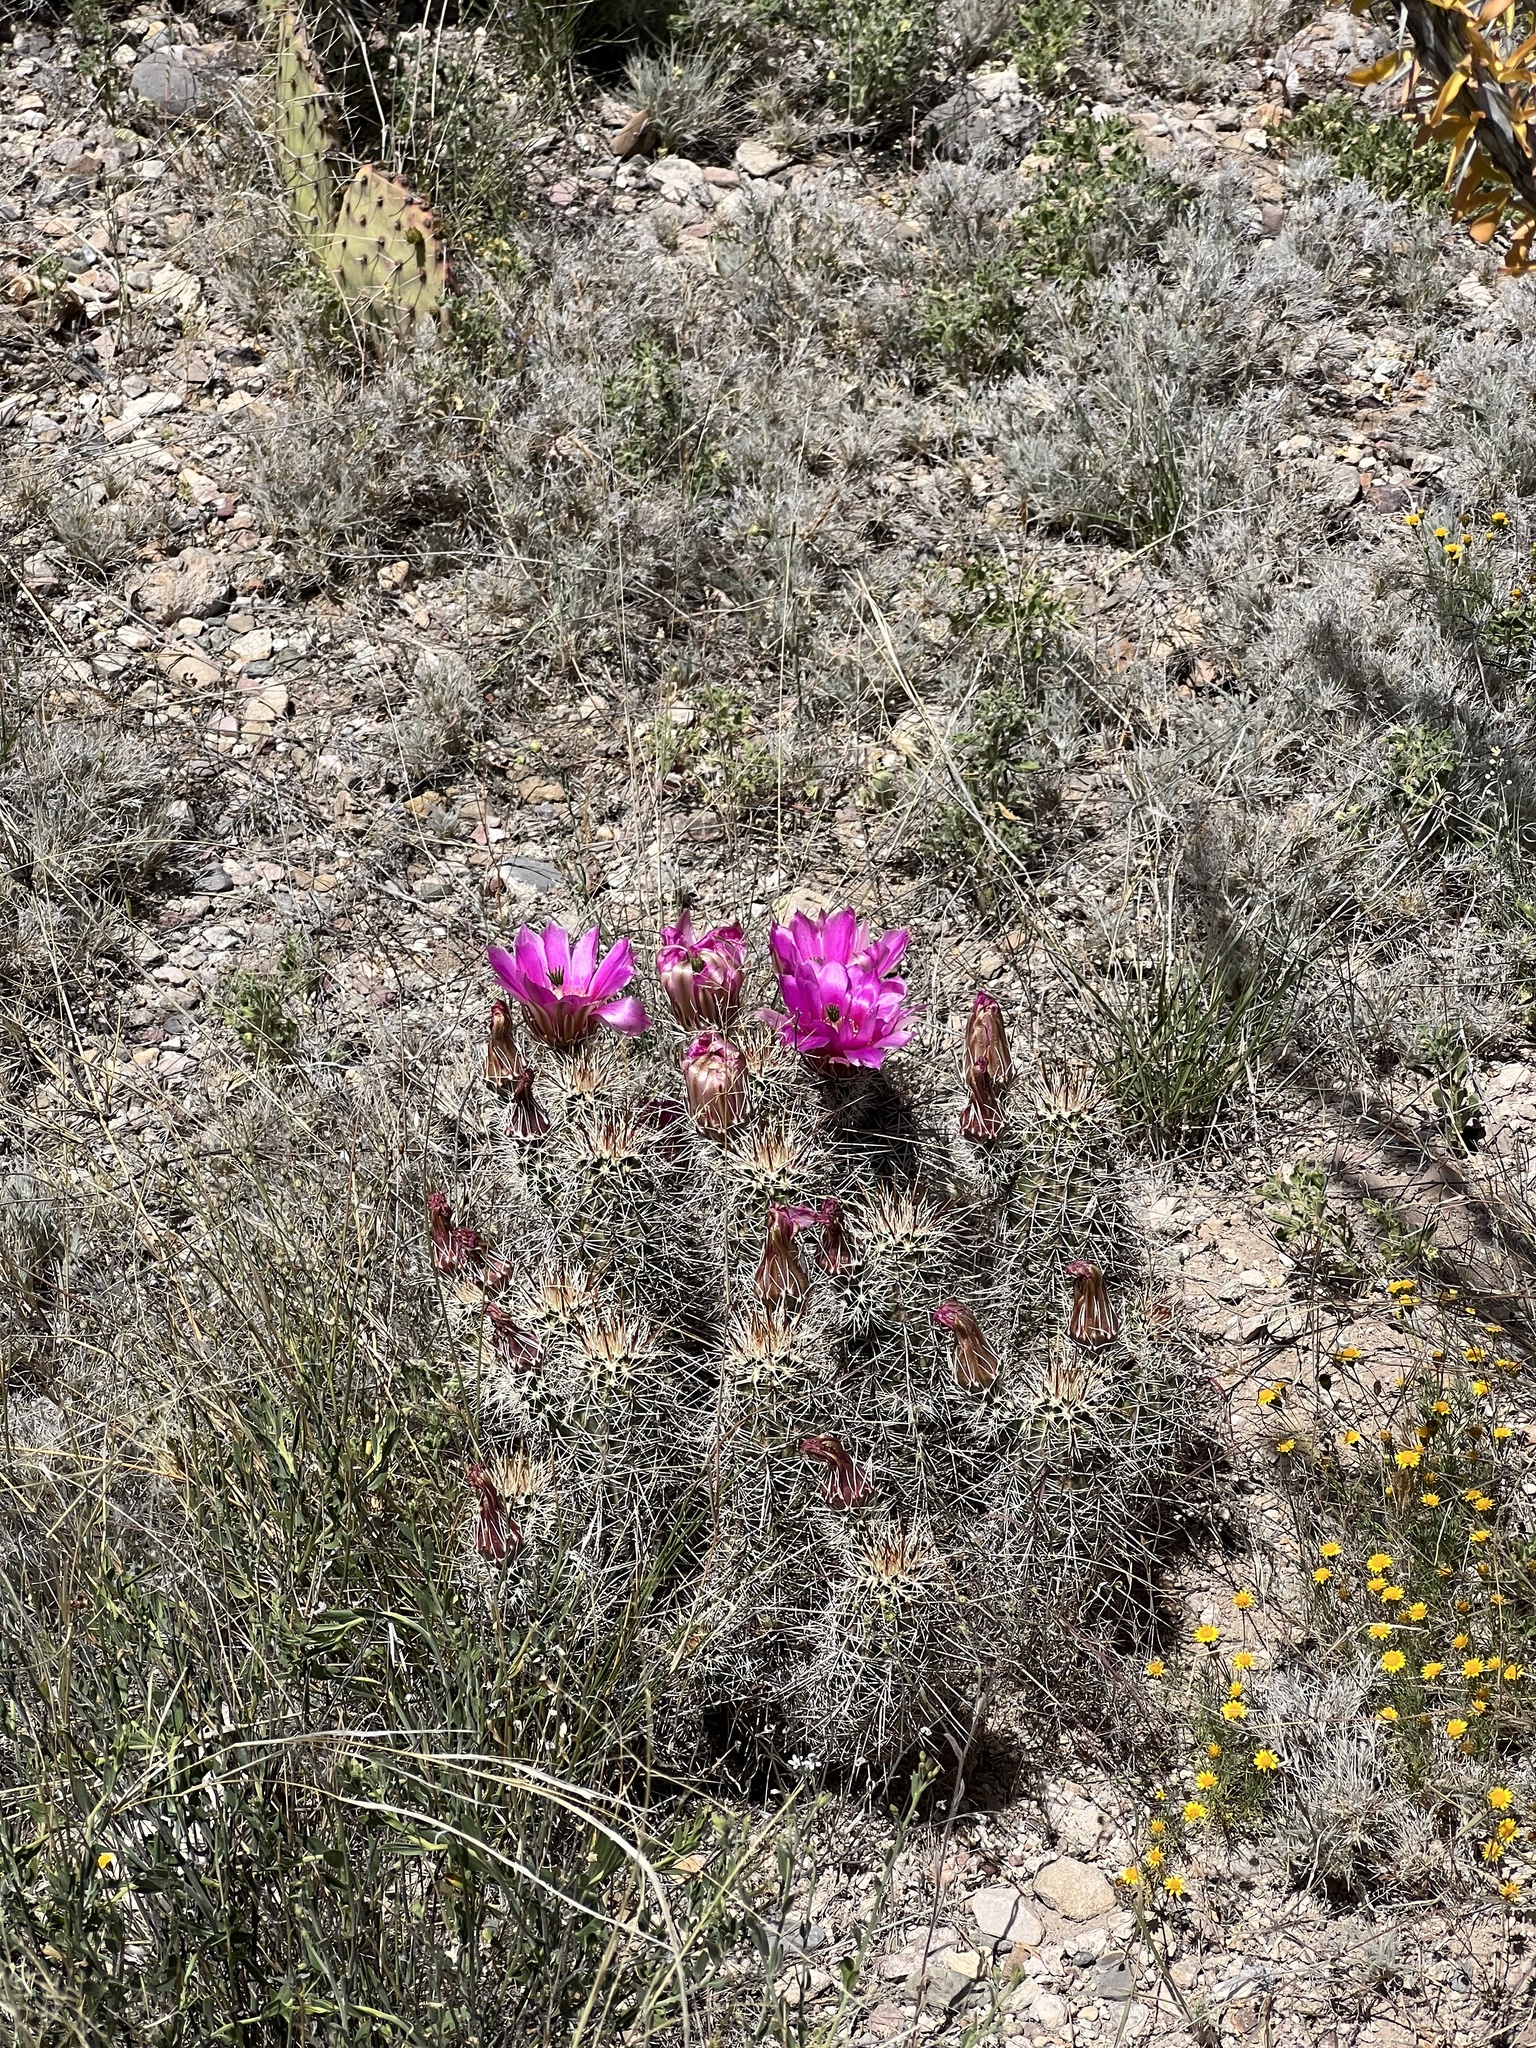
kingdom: Plantae
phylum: Tracheophyta
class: Magnoliopsida
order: Caryophyllales
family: Cactaceae
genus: Echinocereus
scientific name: Echinocereus fasciculatus
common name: Bundle hedgehog
